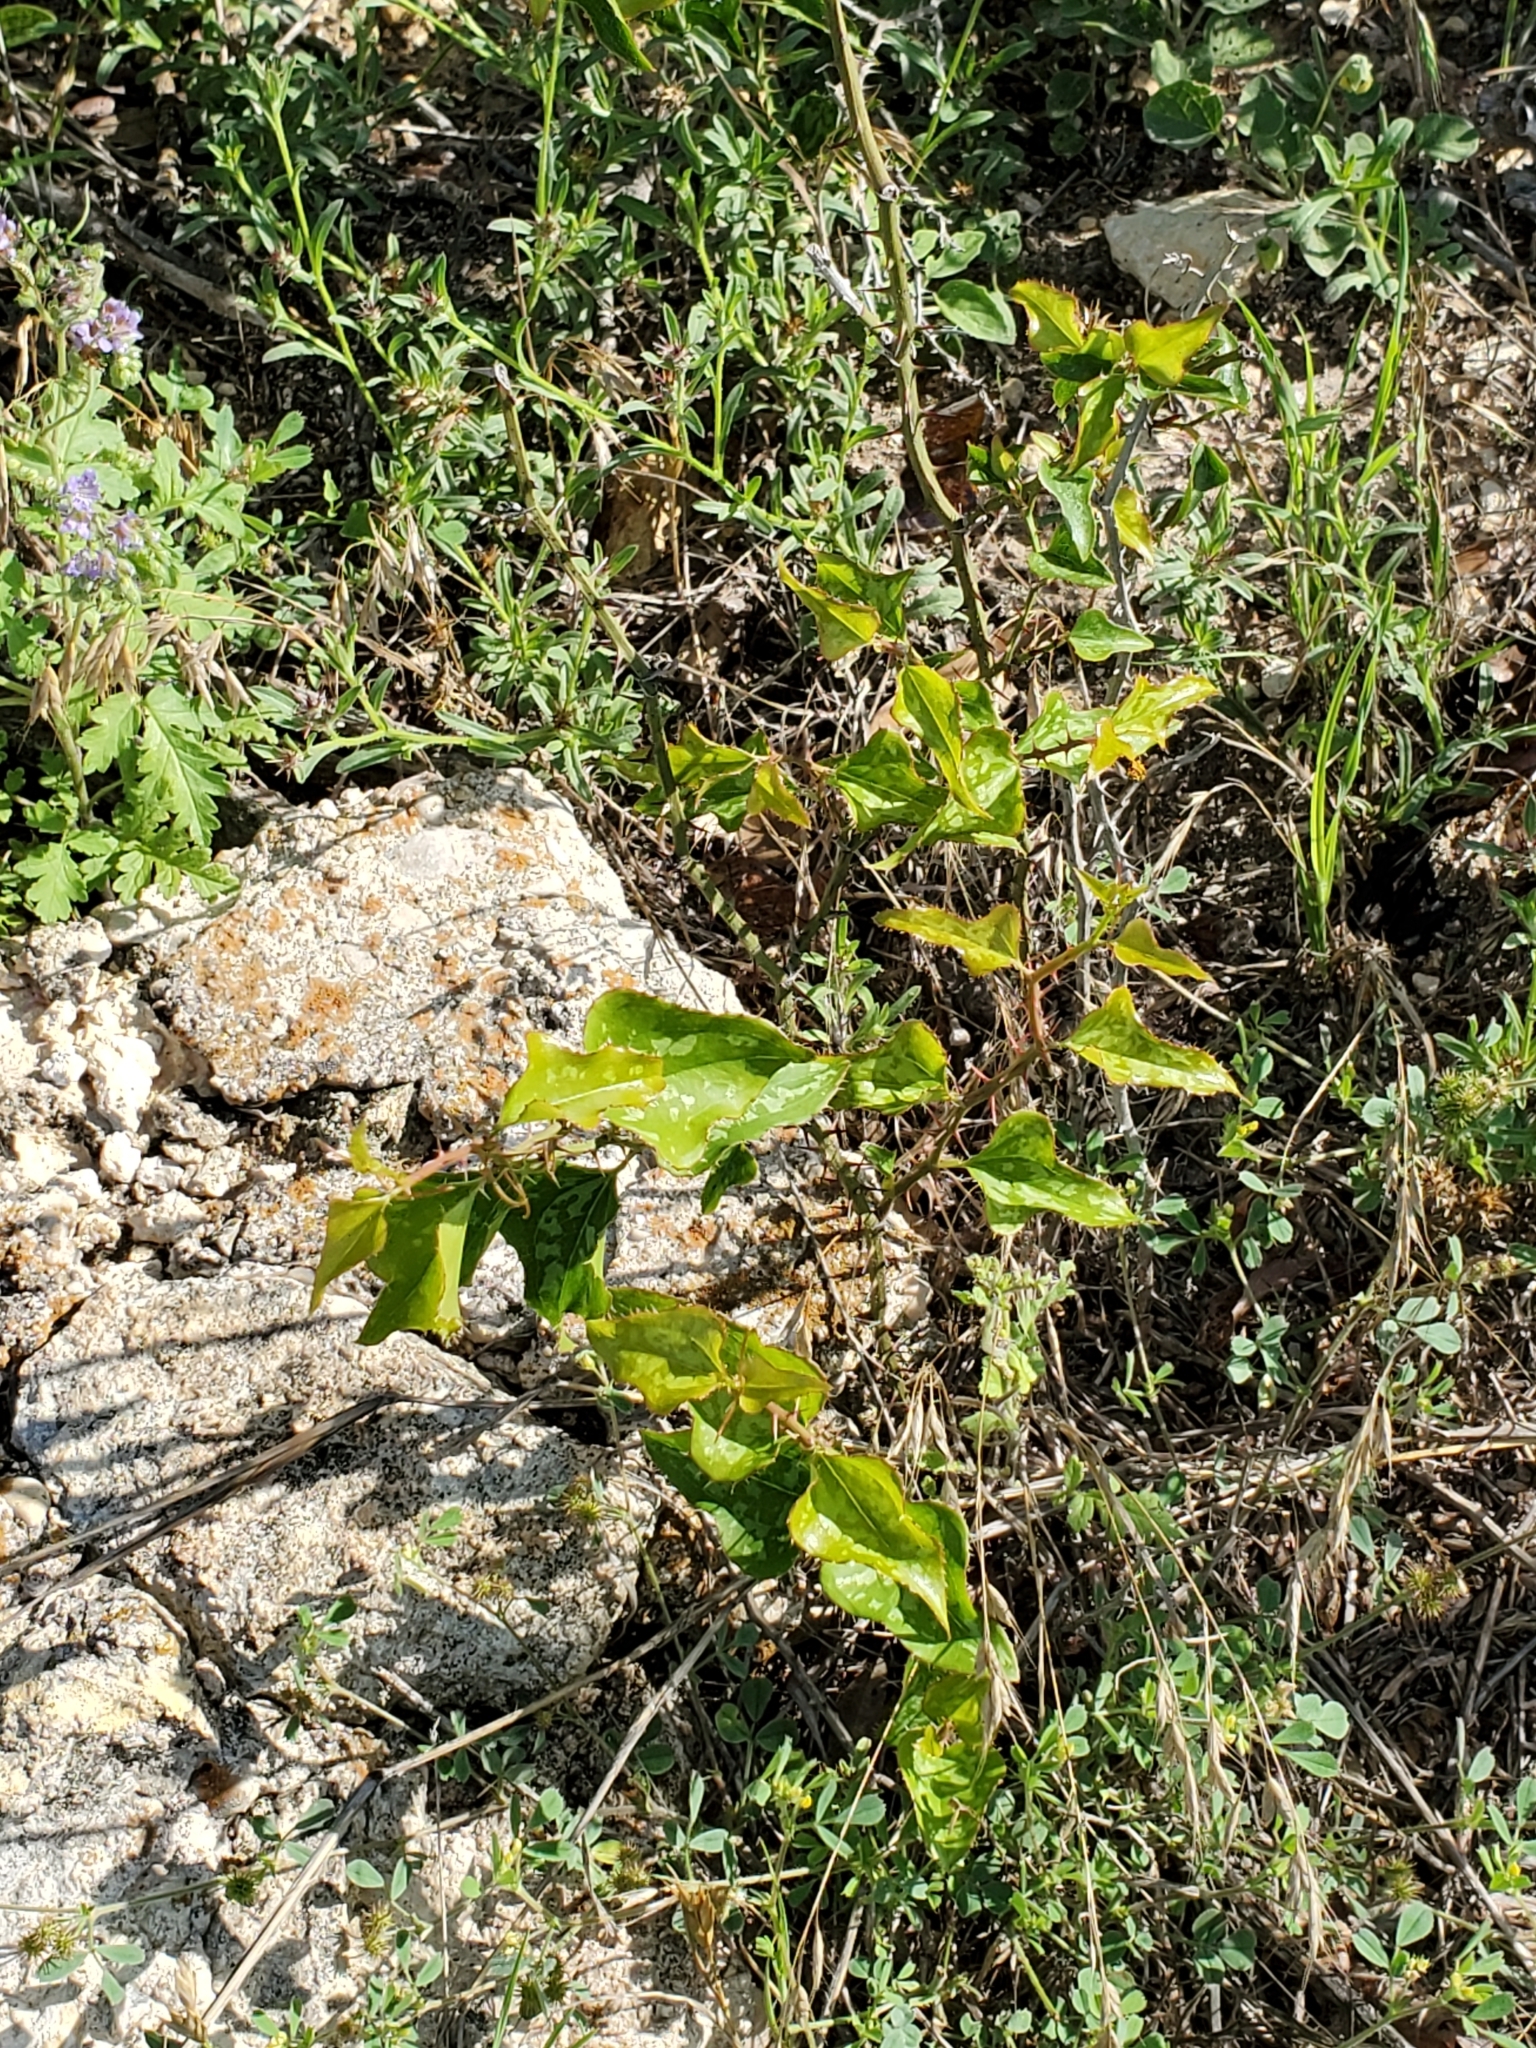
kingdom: Plantae
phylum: Tracheophyta
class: Liliopsida
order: Liliales
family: Smilacaceae
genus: Smilax
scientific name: Smilax bona-nox
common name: Catbrier
